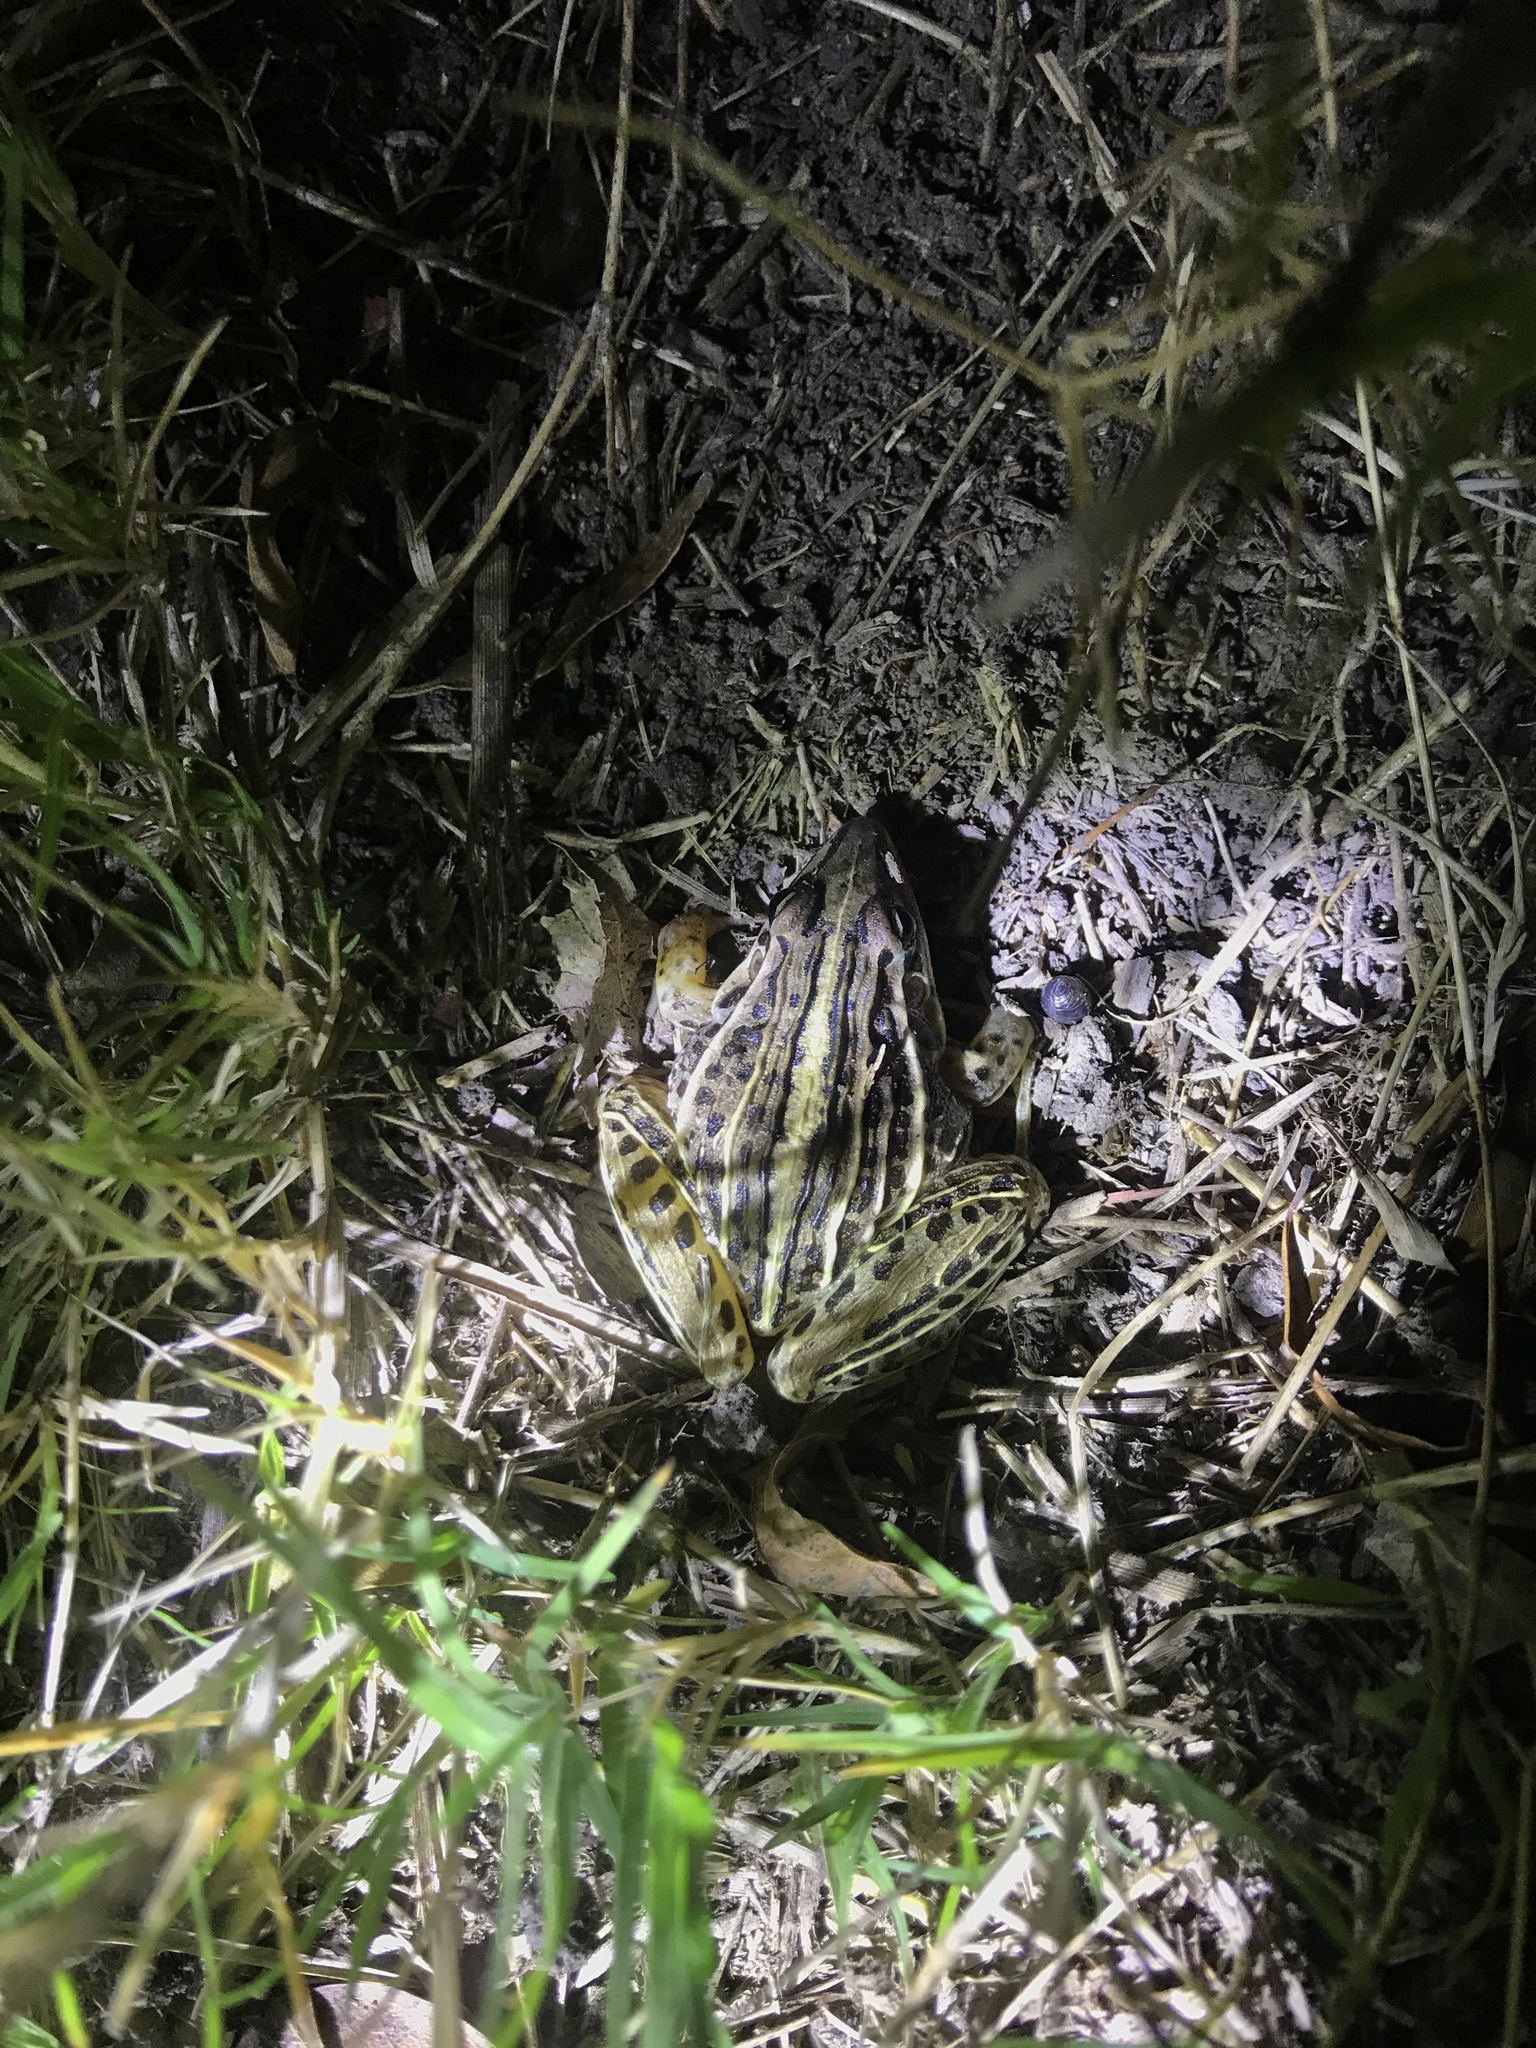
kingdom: Animalia
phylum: Chordata
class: Amphibia
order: Anura
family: Leptodactylidae
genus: Leptodactylus
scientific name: Leptodactylus gracilis
